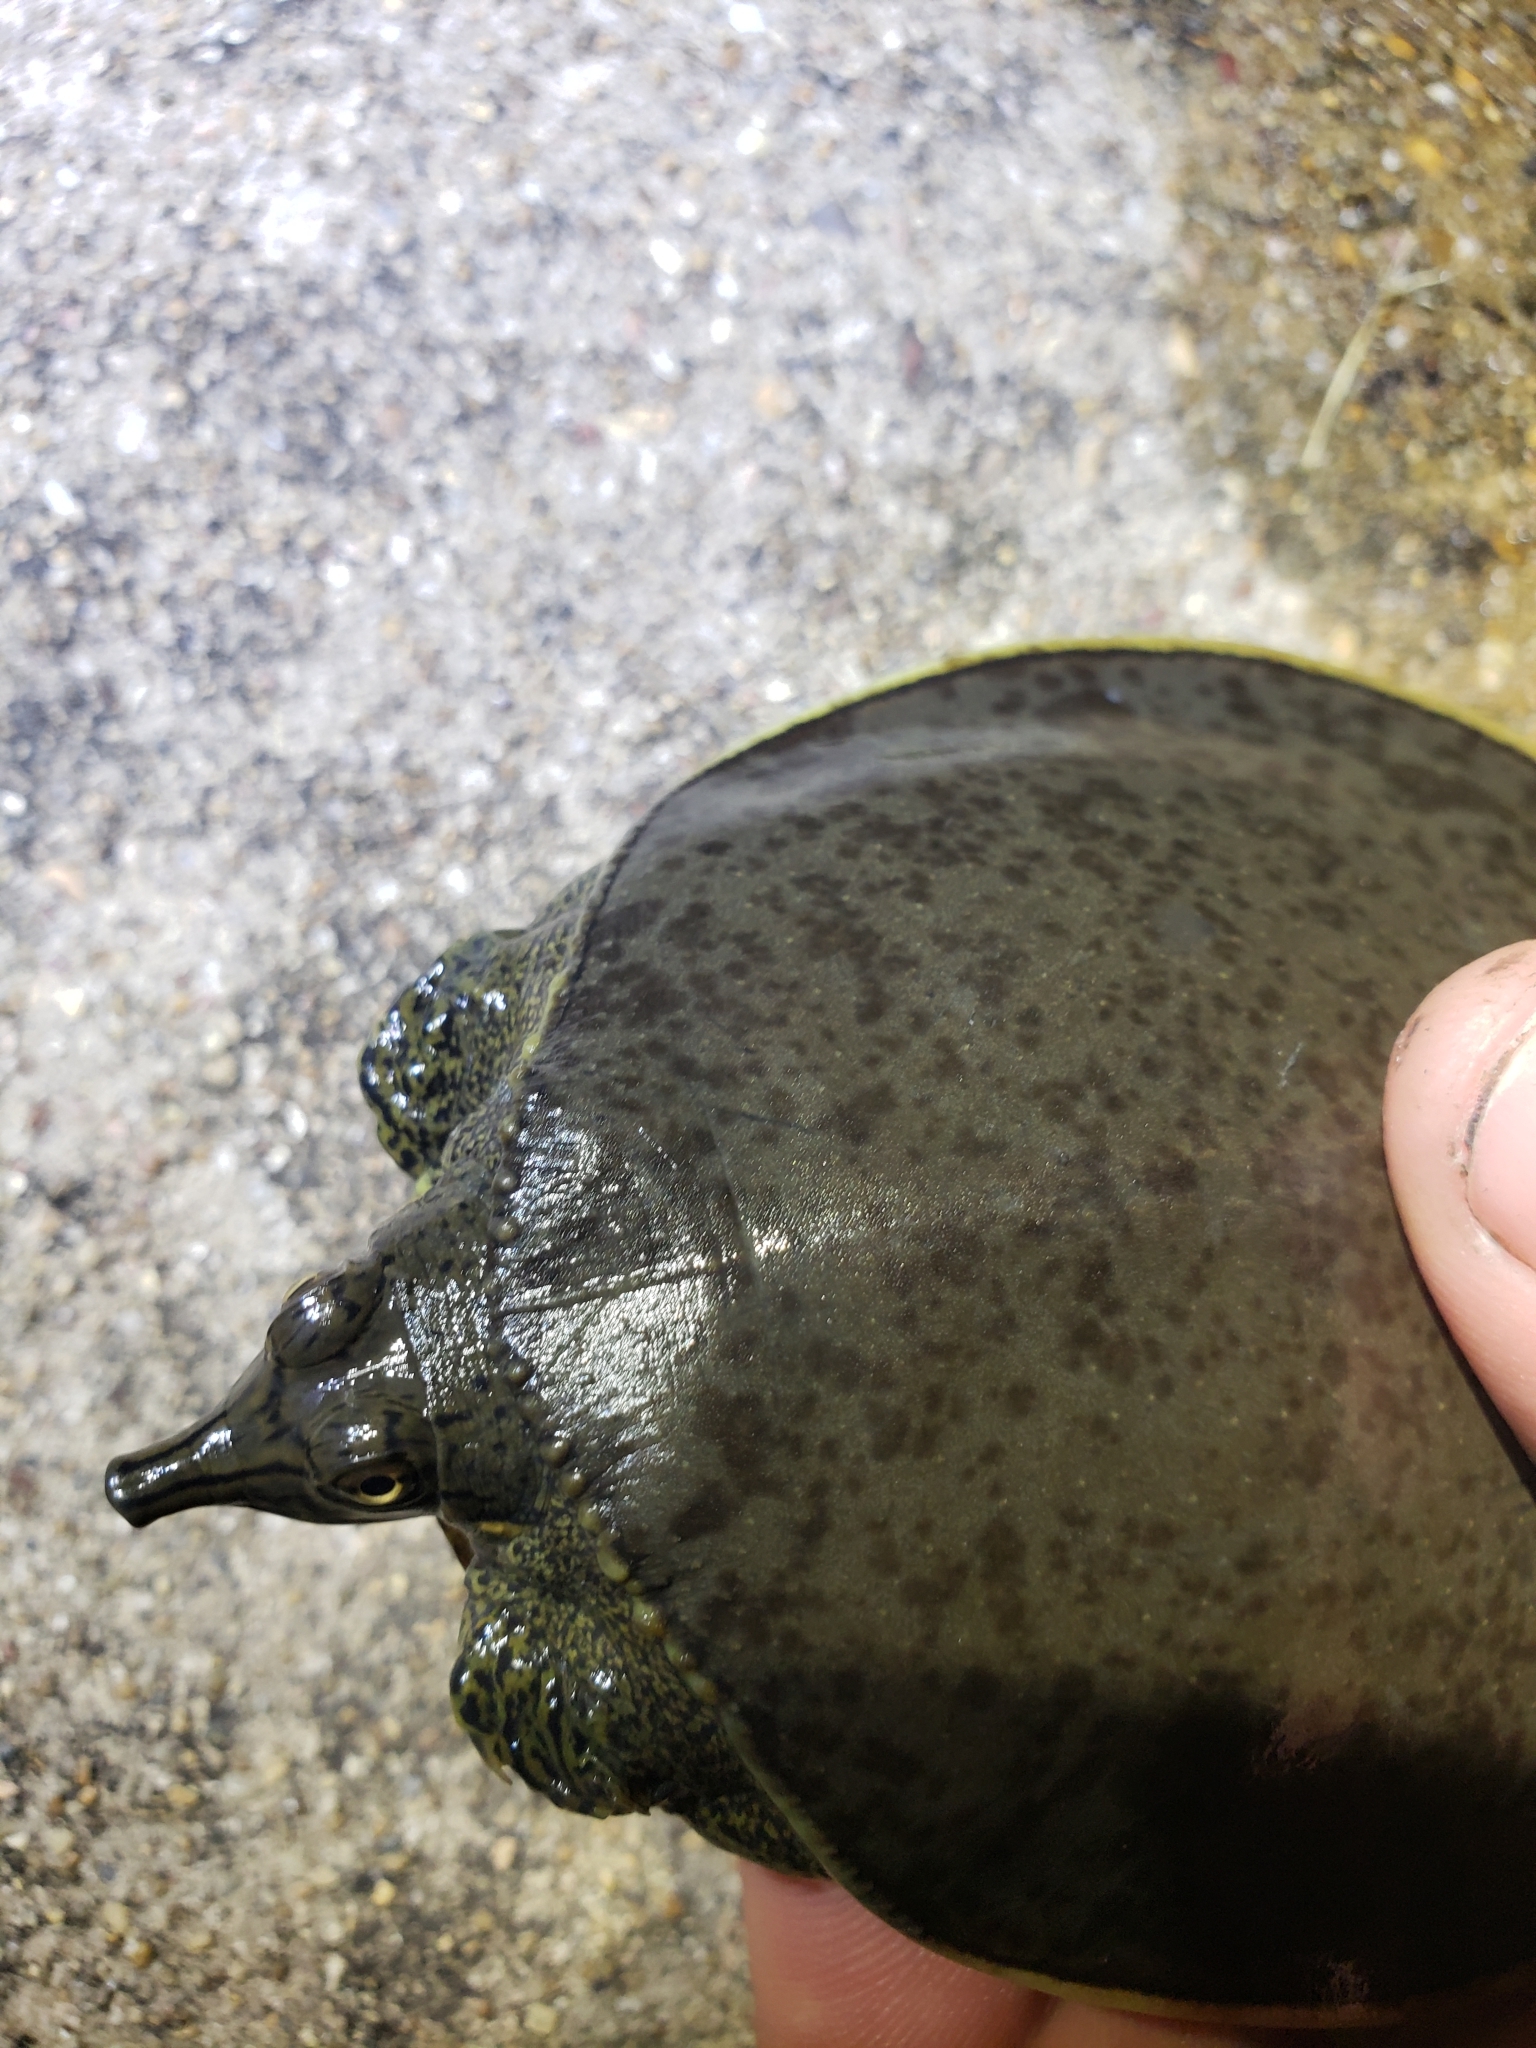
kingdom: Animalia
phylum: Chordata
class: Testudines
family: Trionychidae
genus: Apalone
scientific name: Apalone spinifera
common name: Spiny softshell turtle
